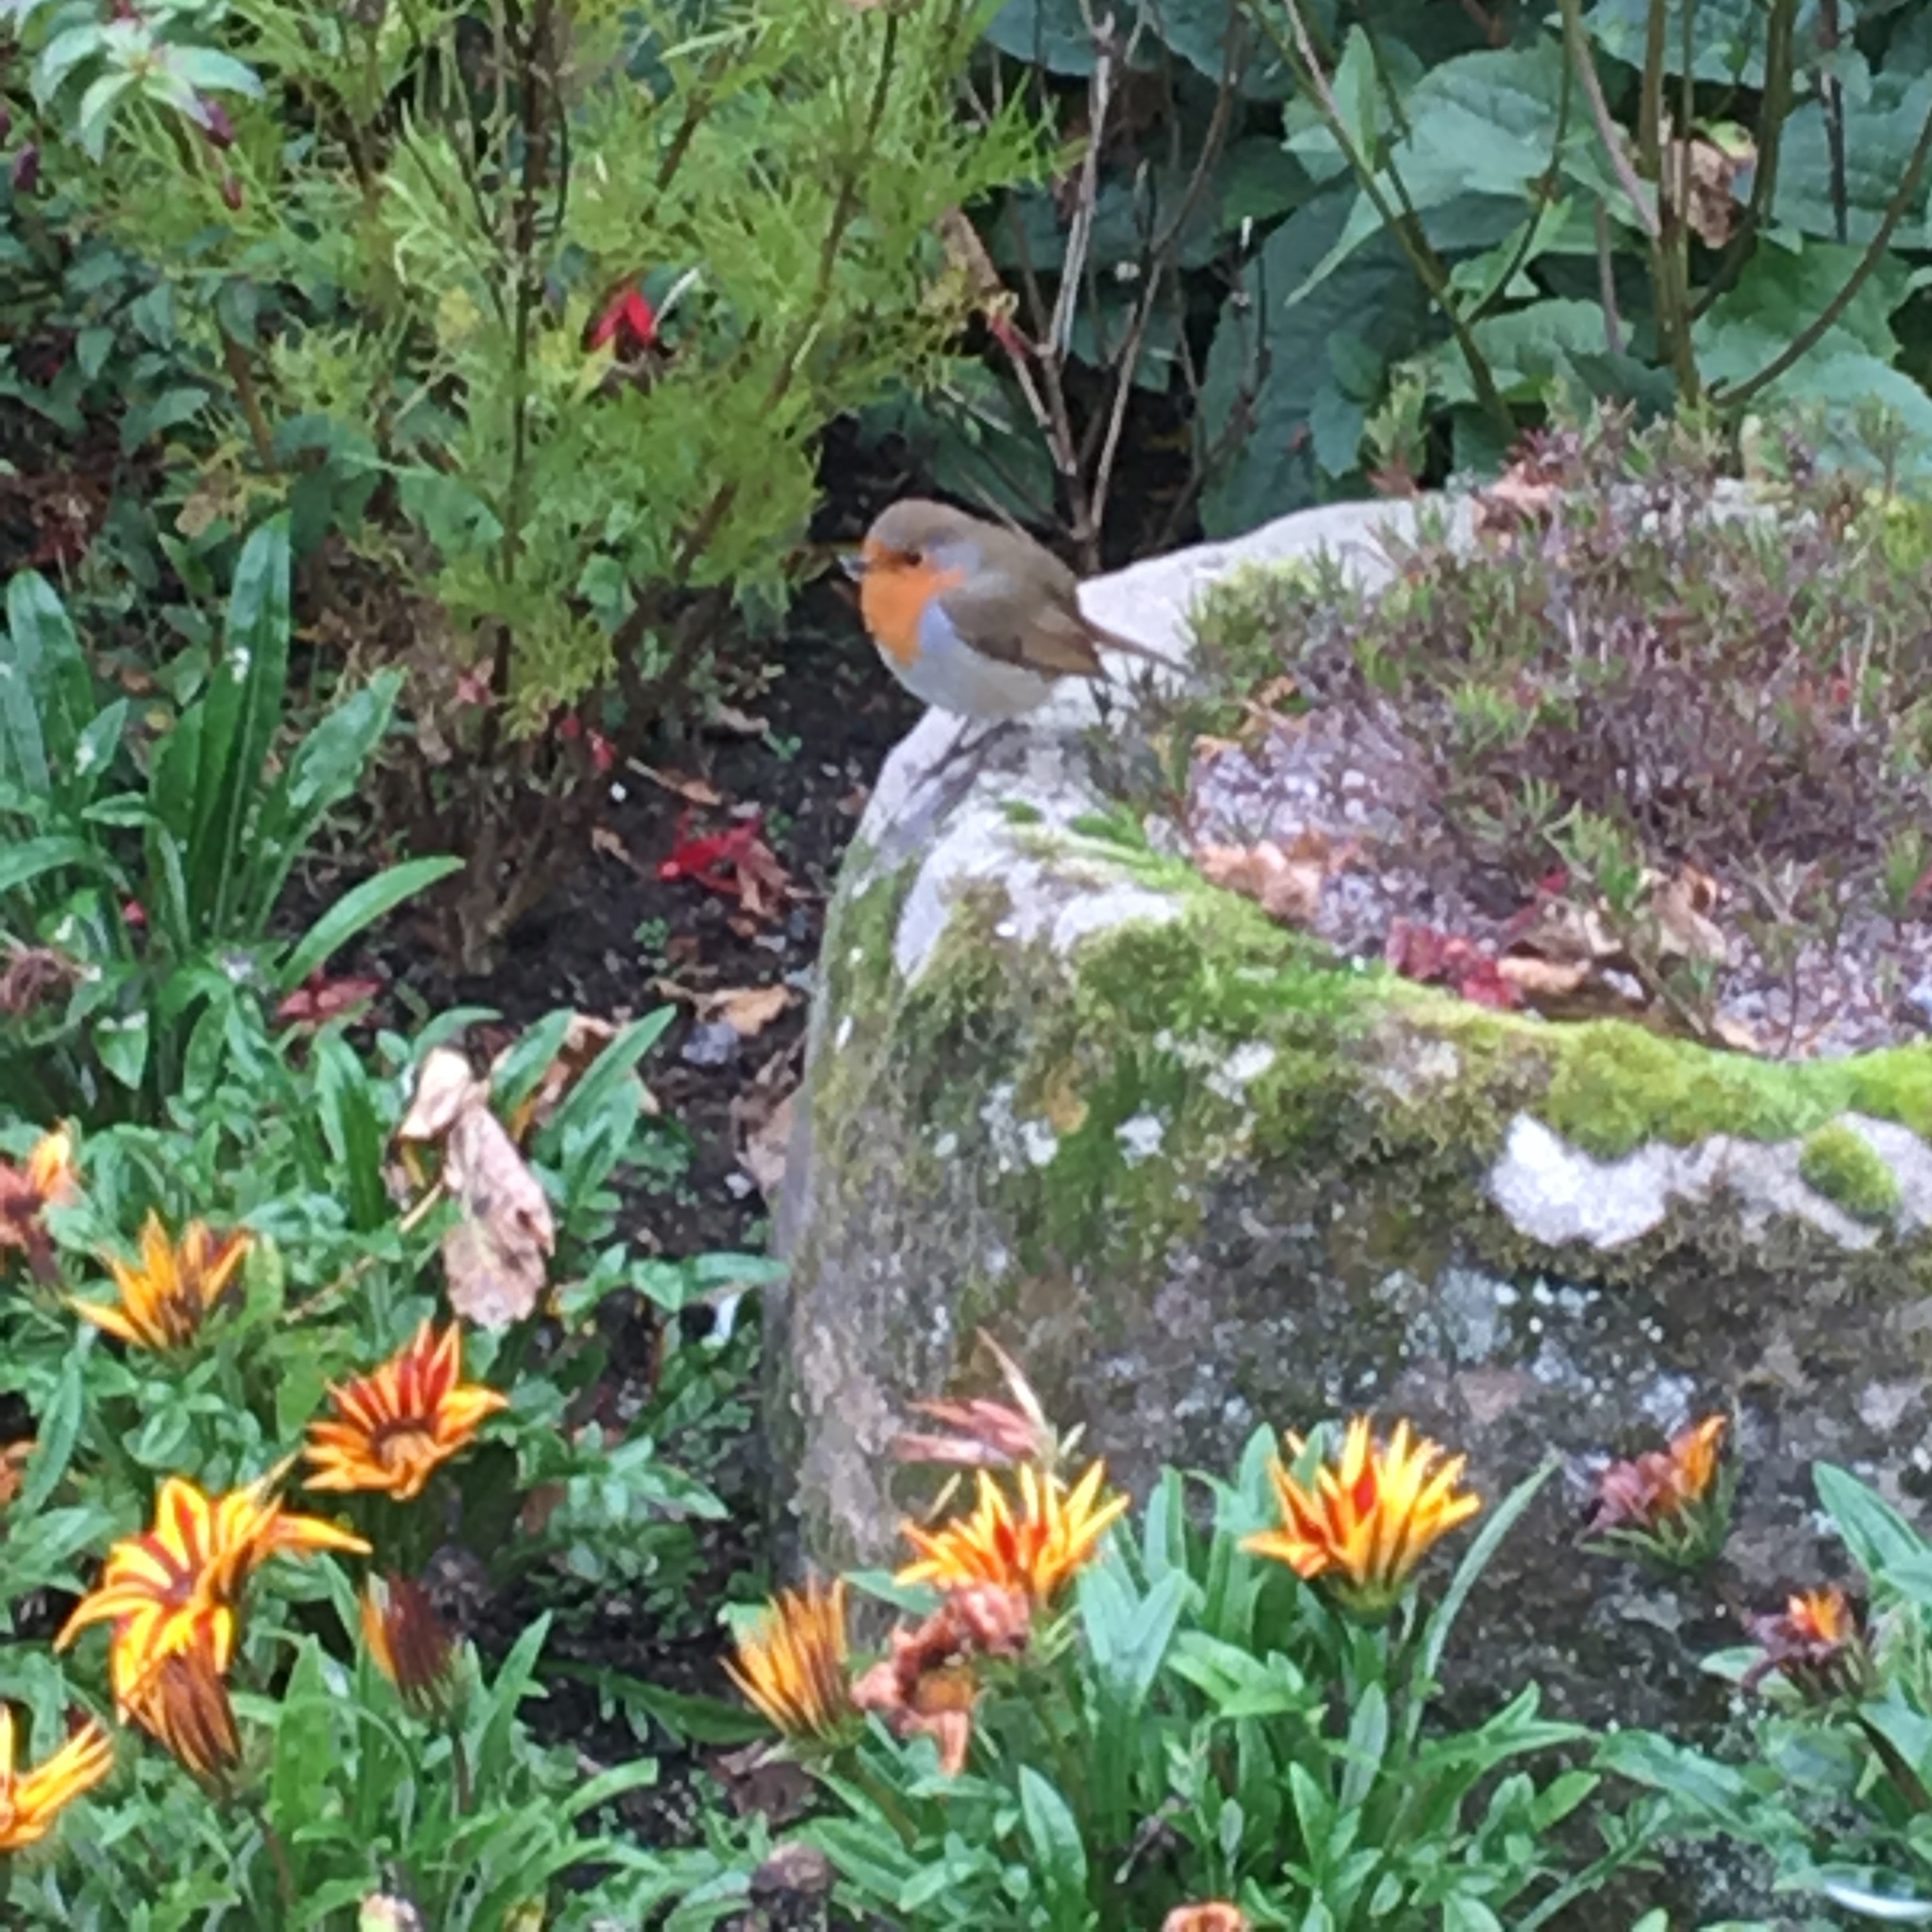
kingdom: Animalia
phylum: Chordata
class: Aves
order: Passeriformes
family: Muscicapidae
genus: Erithacus
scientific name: Erithacus rubecula
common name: European robin
